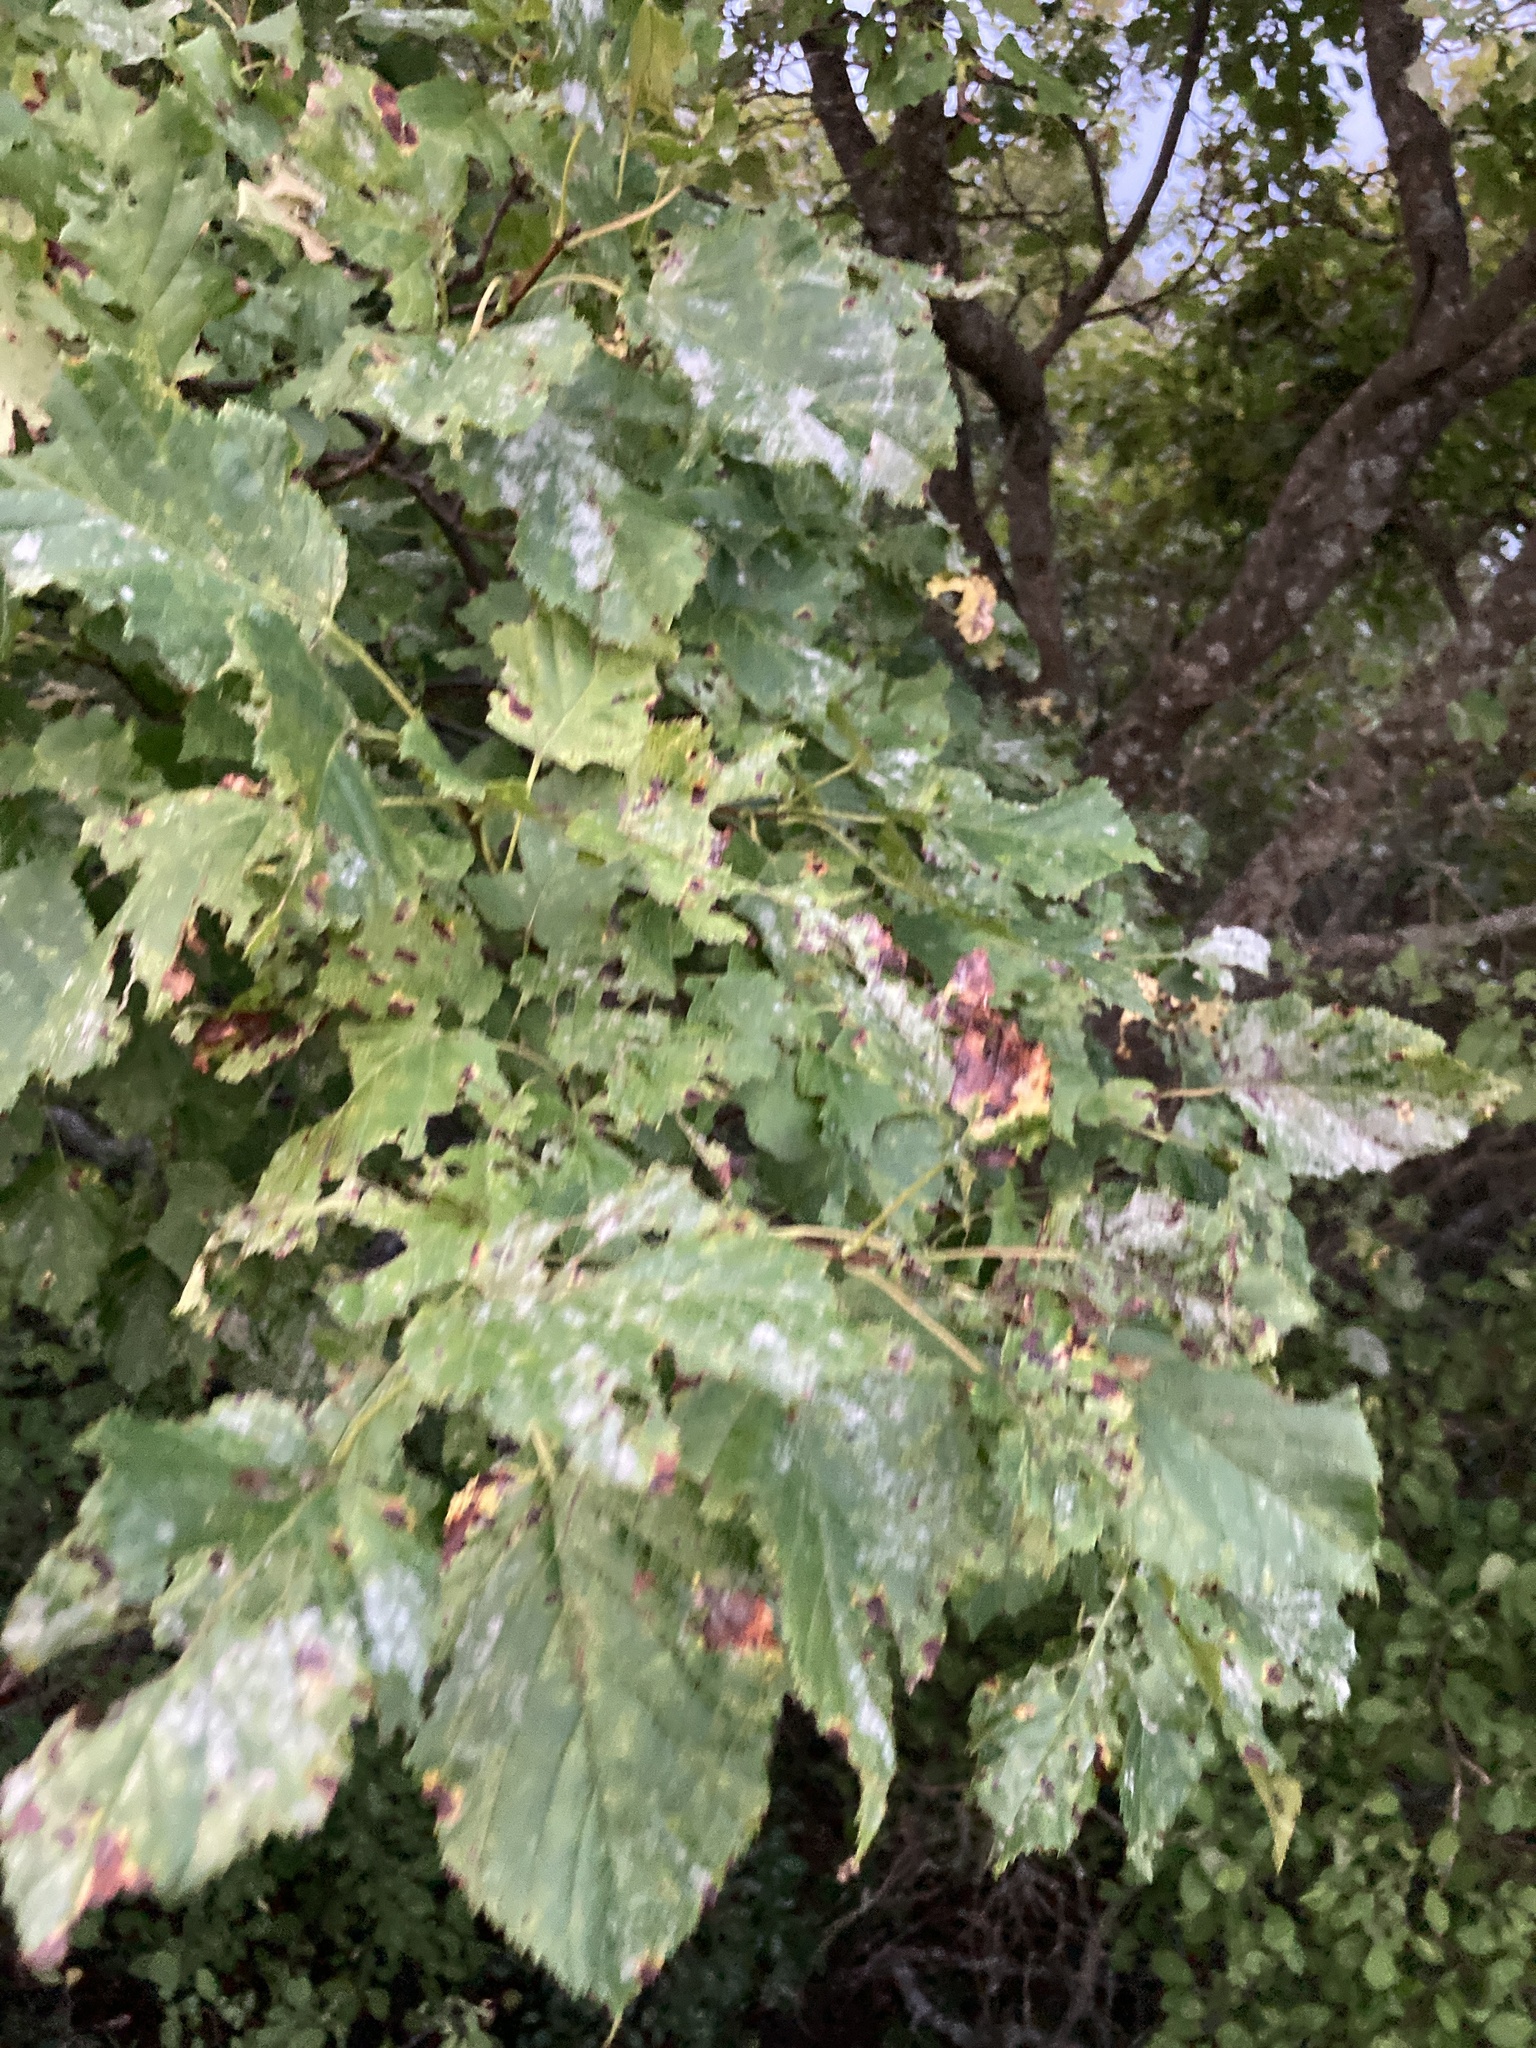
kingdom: Plantae
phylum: Tracheophyta
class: Magnoliopsida
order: Sapindales
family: Sapindaceae
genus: Acer
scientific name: Acer tataricum
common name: Tartar maple
